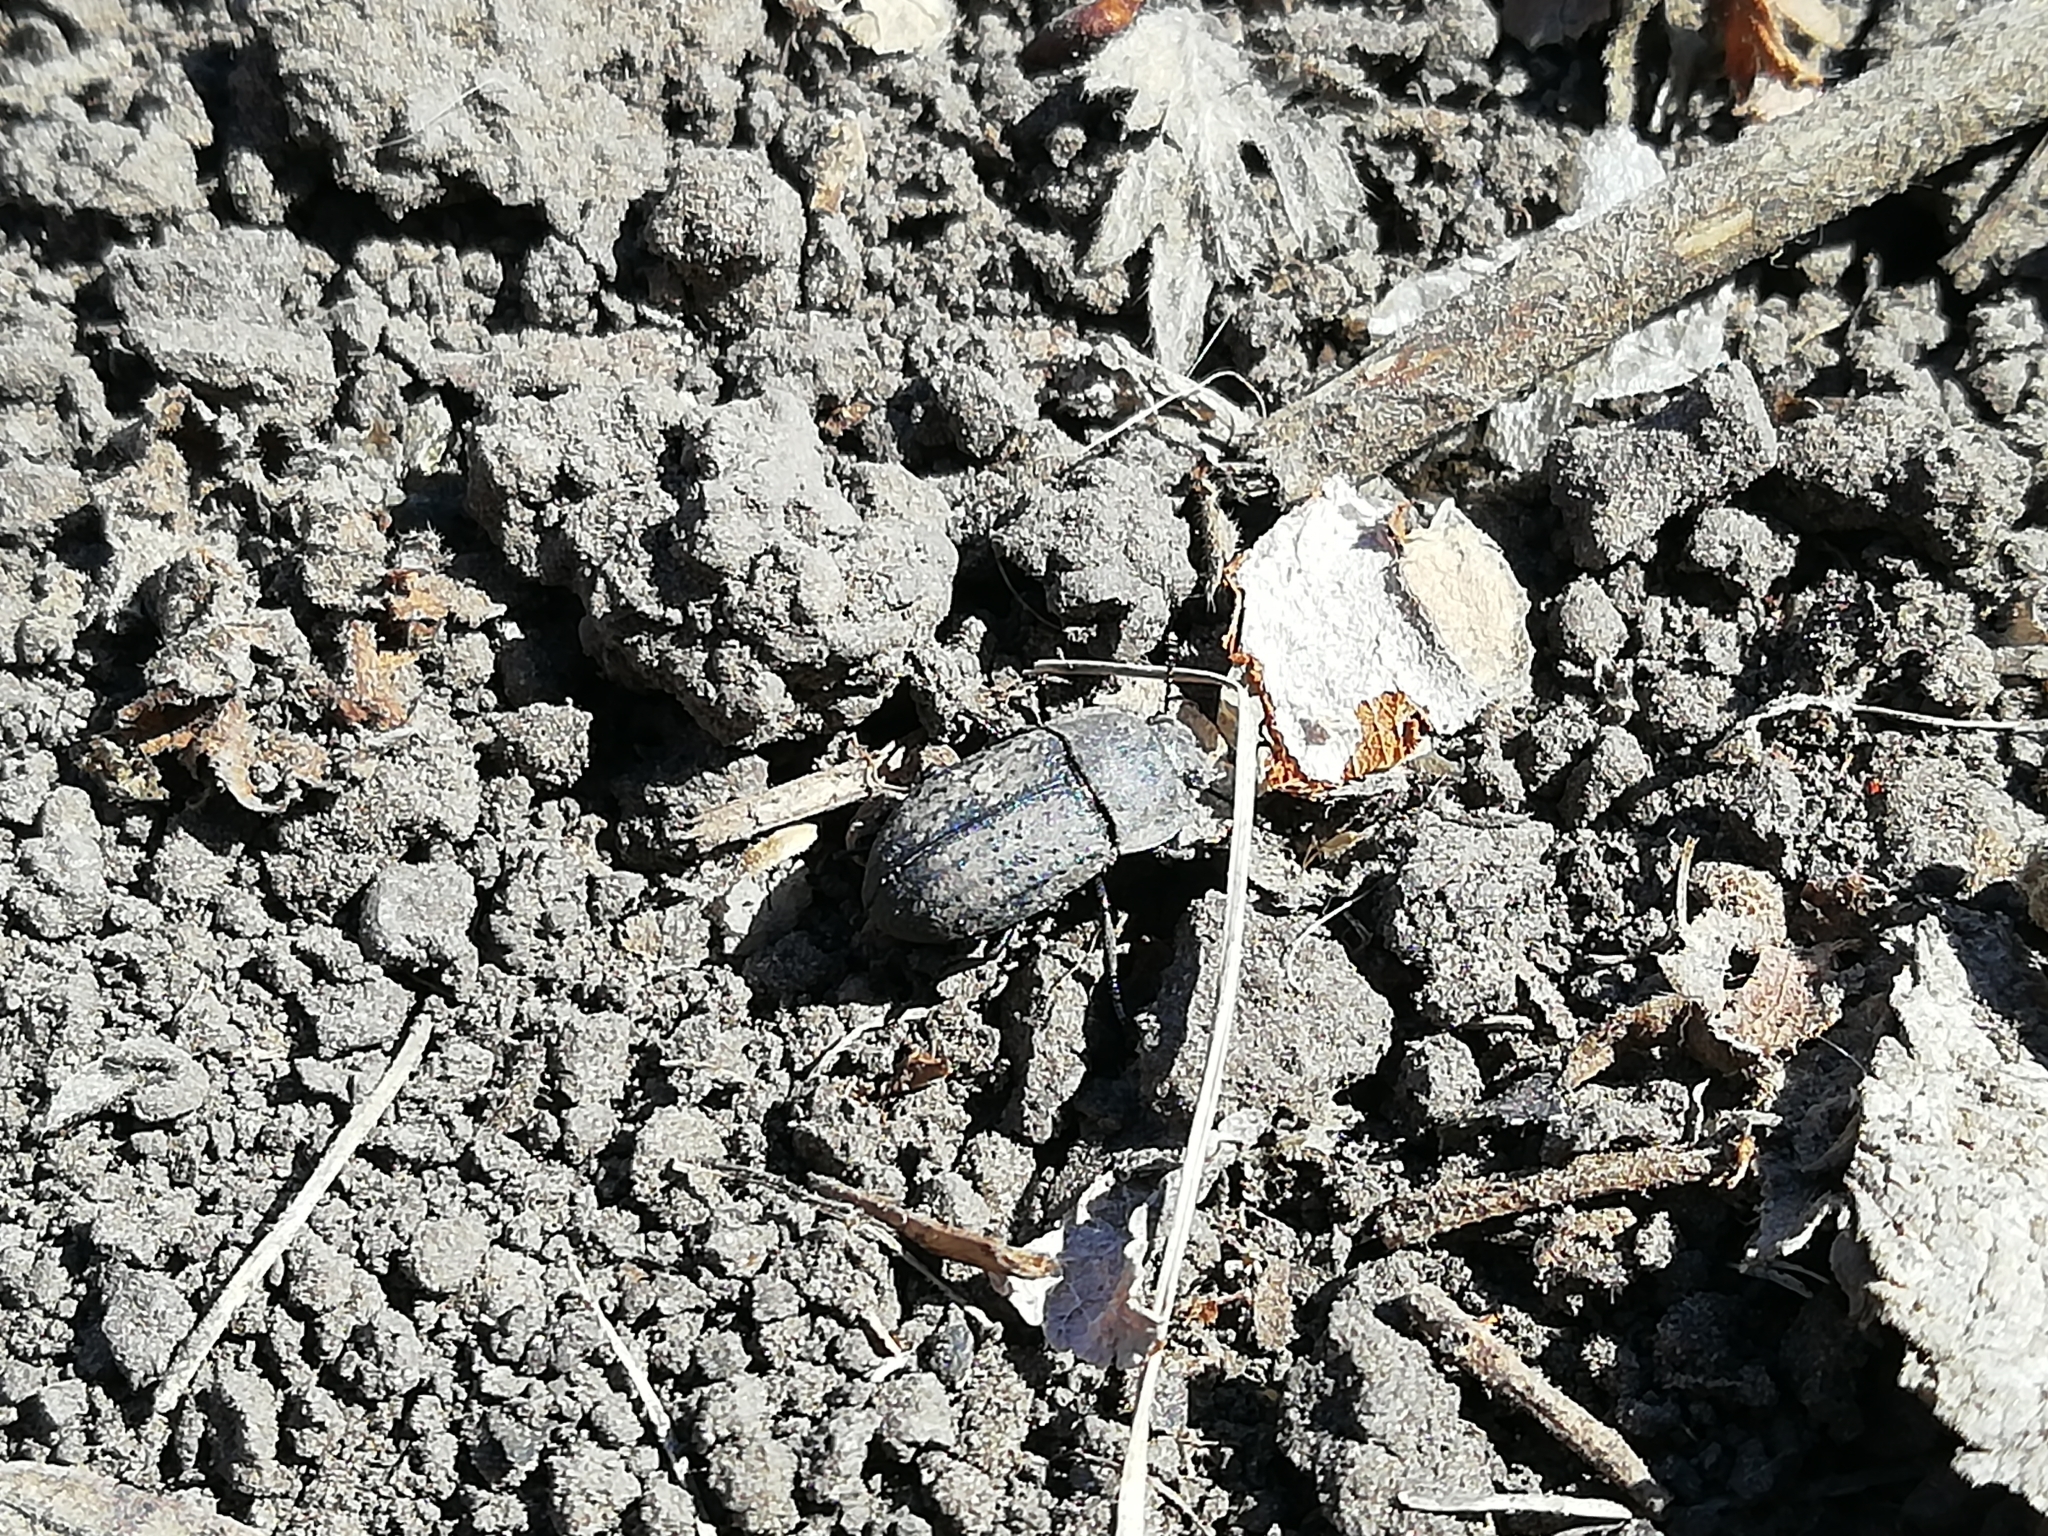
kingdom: Animalia
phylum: Arthropoda
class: Insecta
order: Coleoptera
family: Tenebrionidae
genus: Opatrum
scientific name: Opatrum sabulosum
